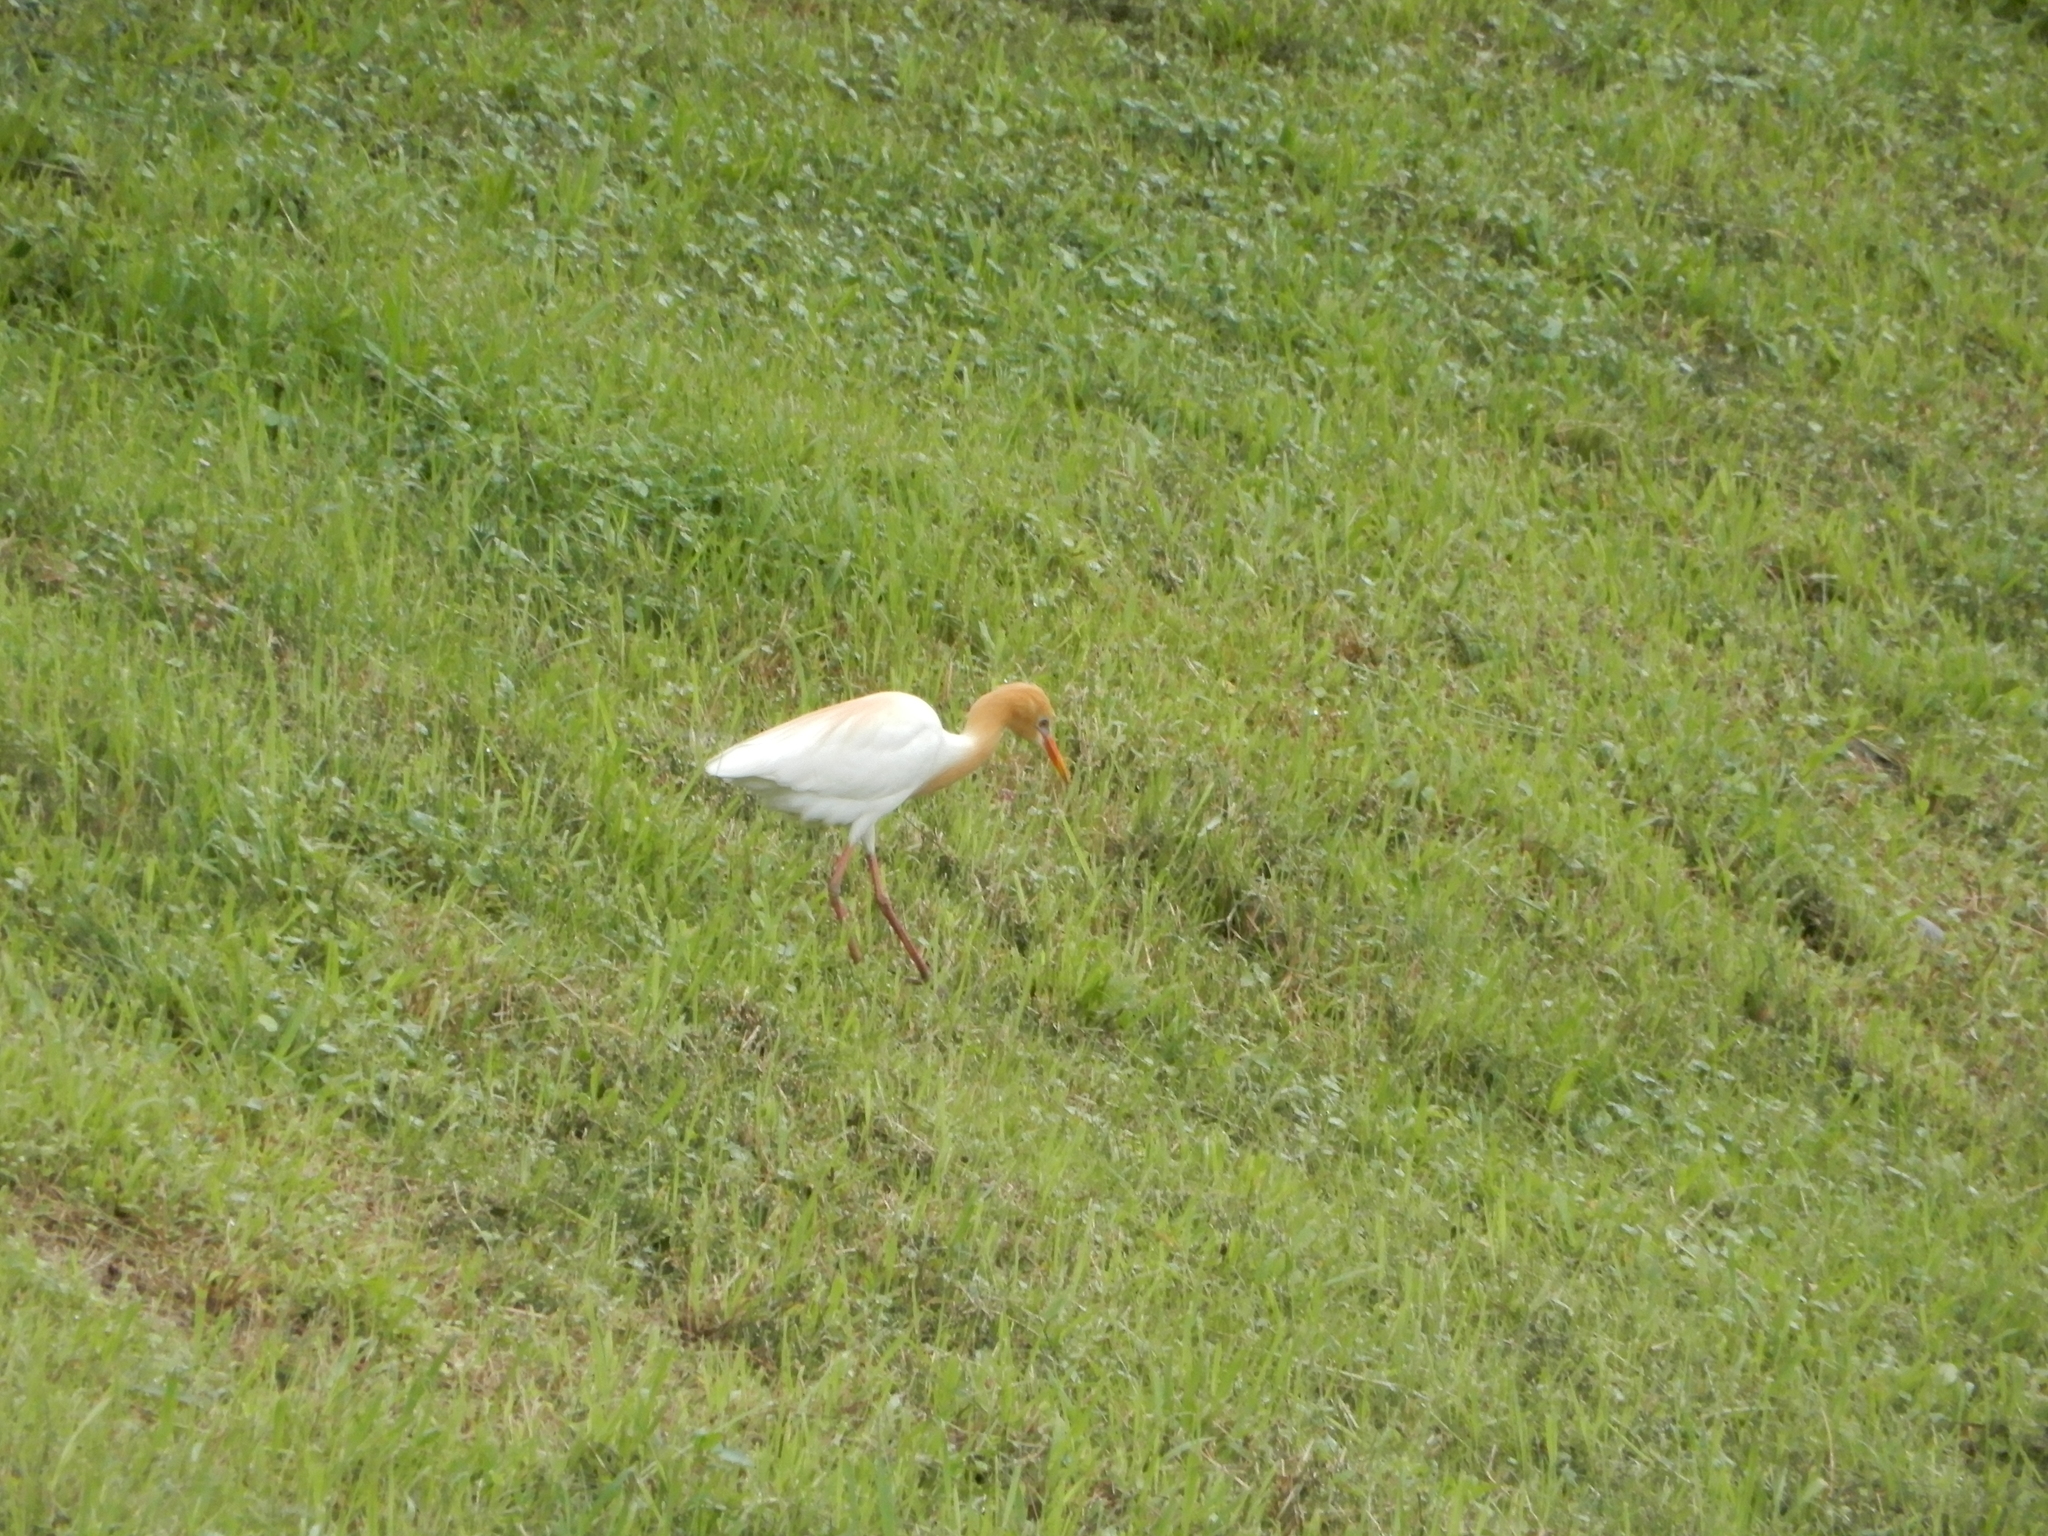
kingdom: Animalia
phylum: Chordata
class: Aves
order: Pelecaniformes
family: Ardeidae
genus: Bubulcus
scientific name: Bubulcus coromandus
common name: Eastern cattle egret
